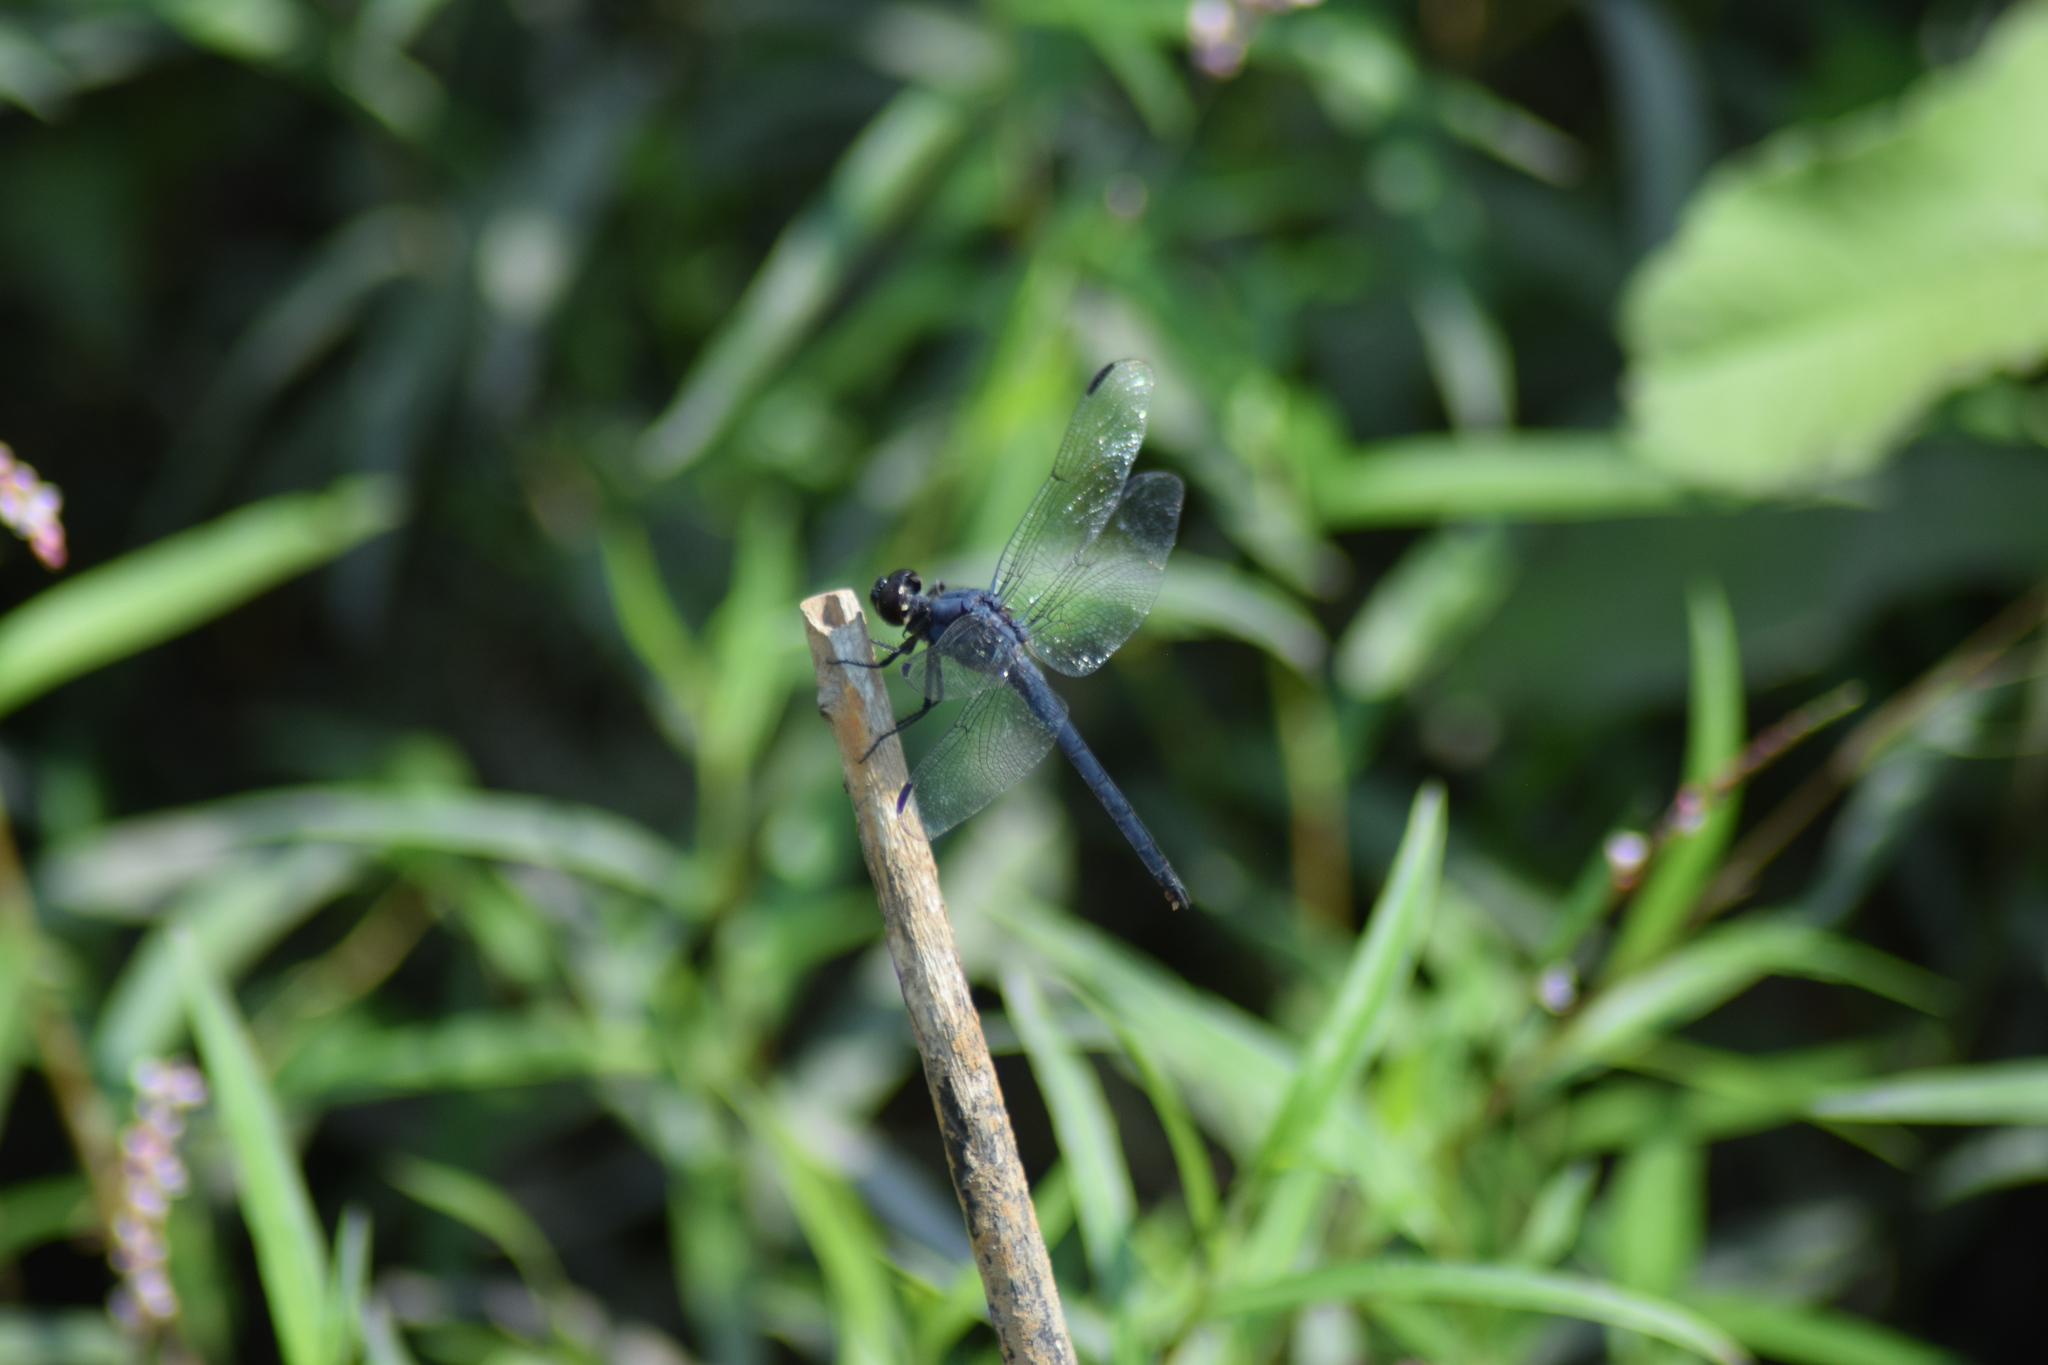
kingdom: Animalia
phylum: Arthropoda
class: Insecta
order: Odonata
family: Libellulidae
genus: Libellula
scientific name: Libellula incesta
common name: Slaty skimmer
